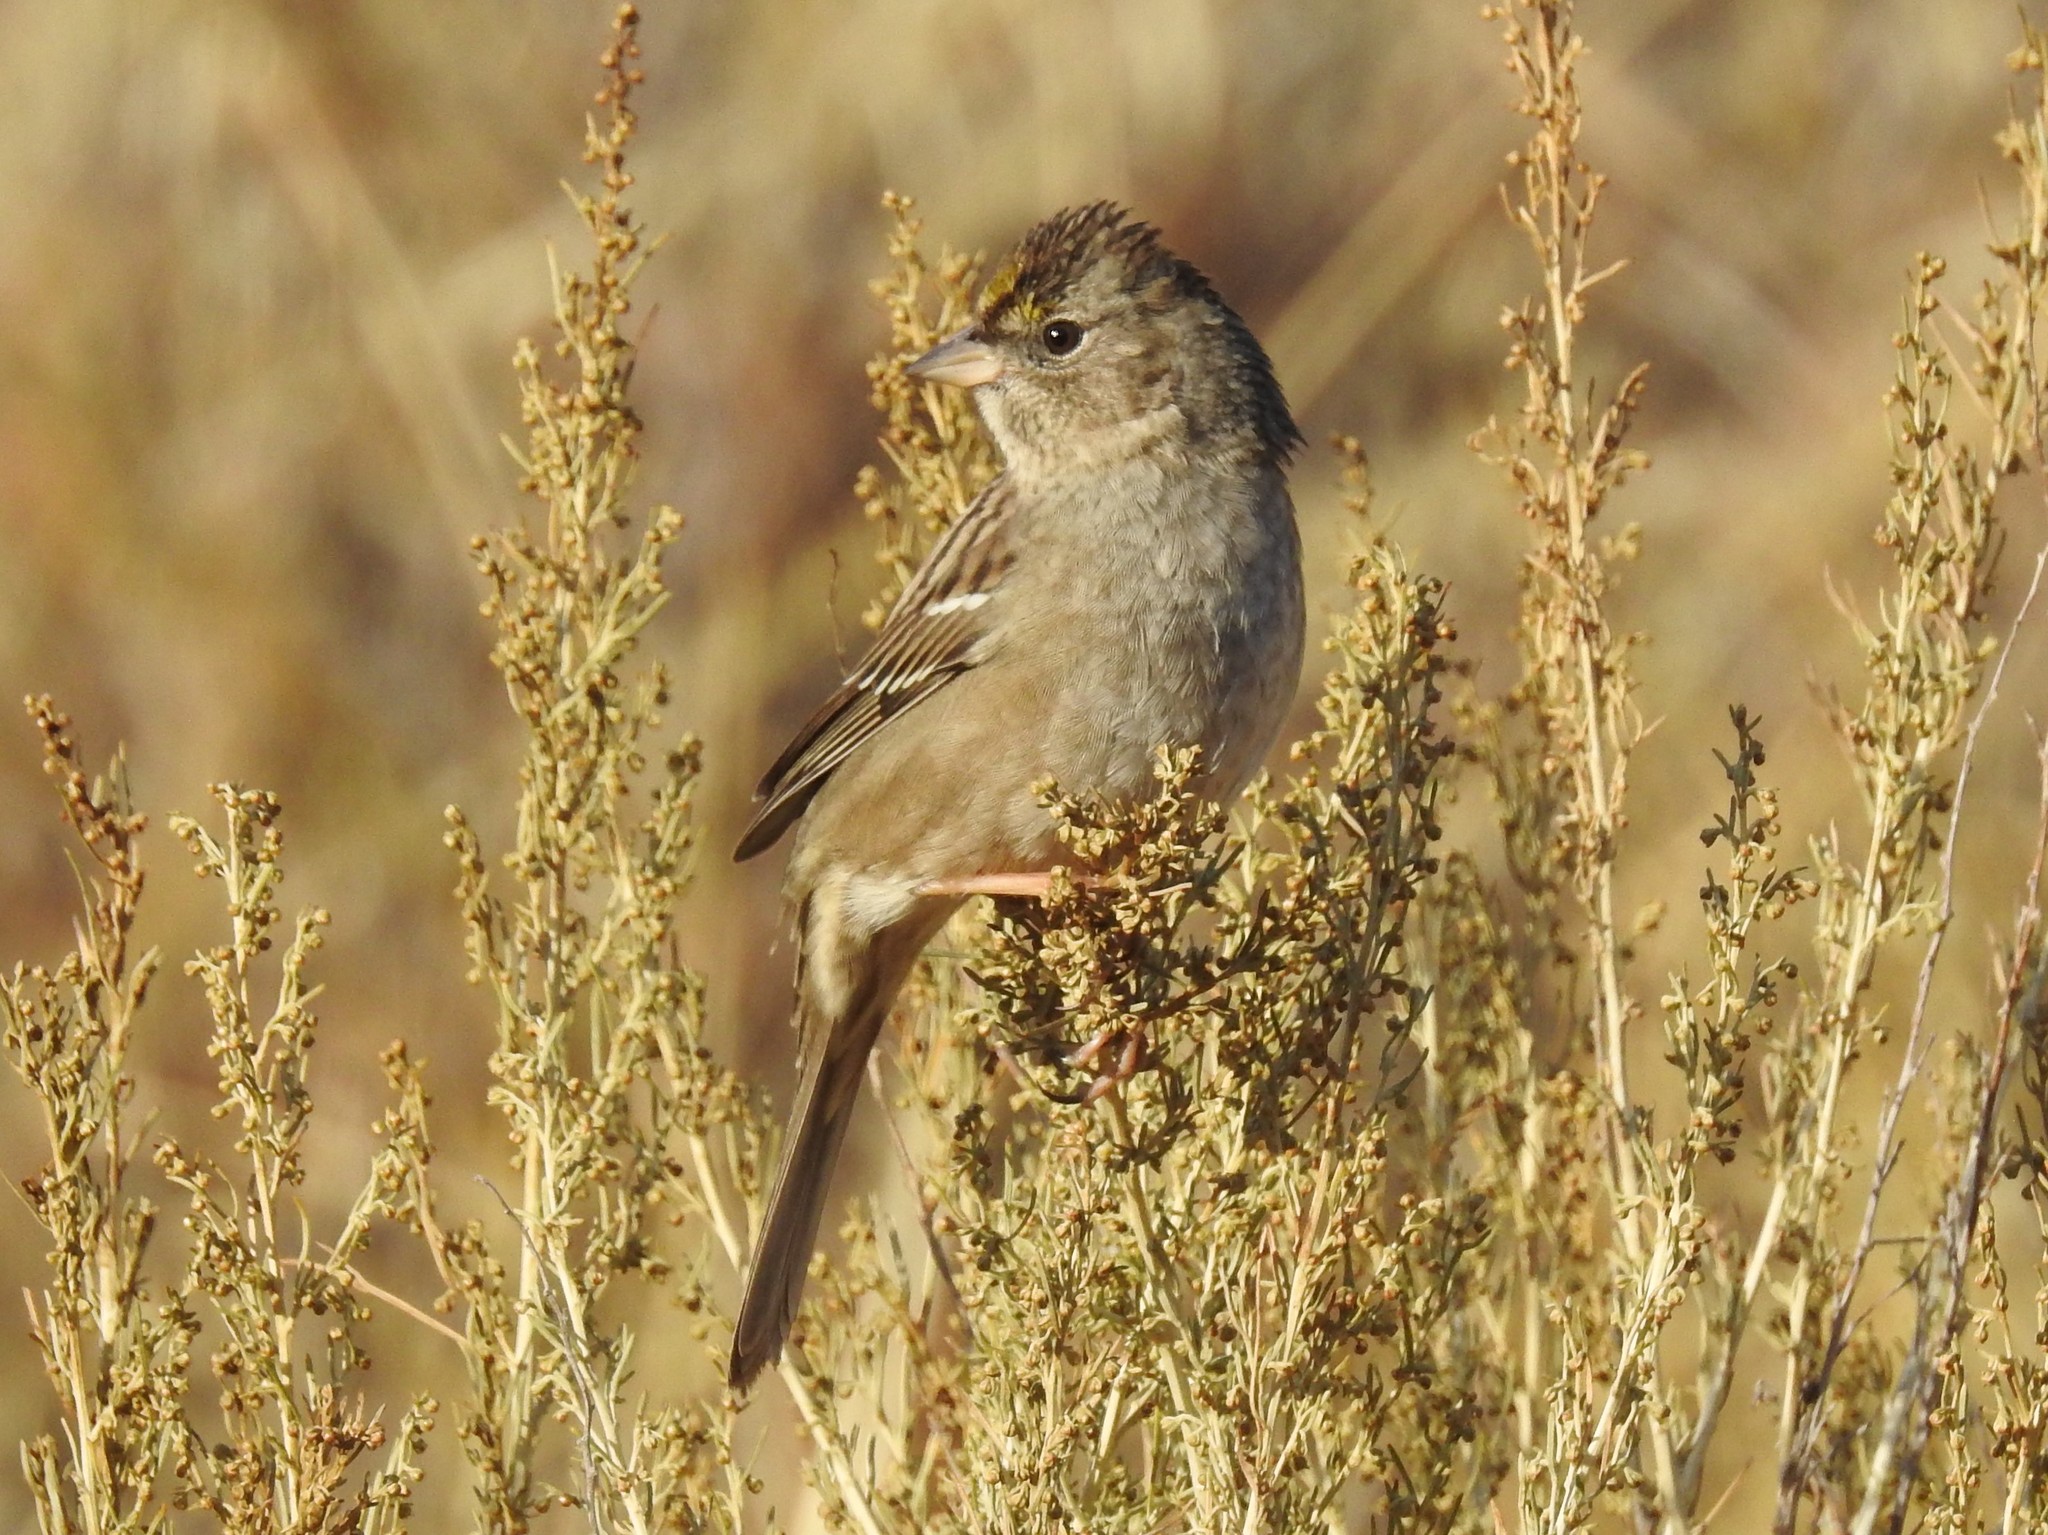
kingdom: Animalia
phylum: Chordata
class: Aves
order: Passeriformes
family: Passerellidae
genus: Zonotrichia
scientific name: Zonotrichia atricapilla
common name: Golden-crowned sparrow
